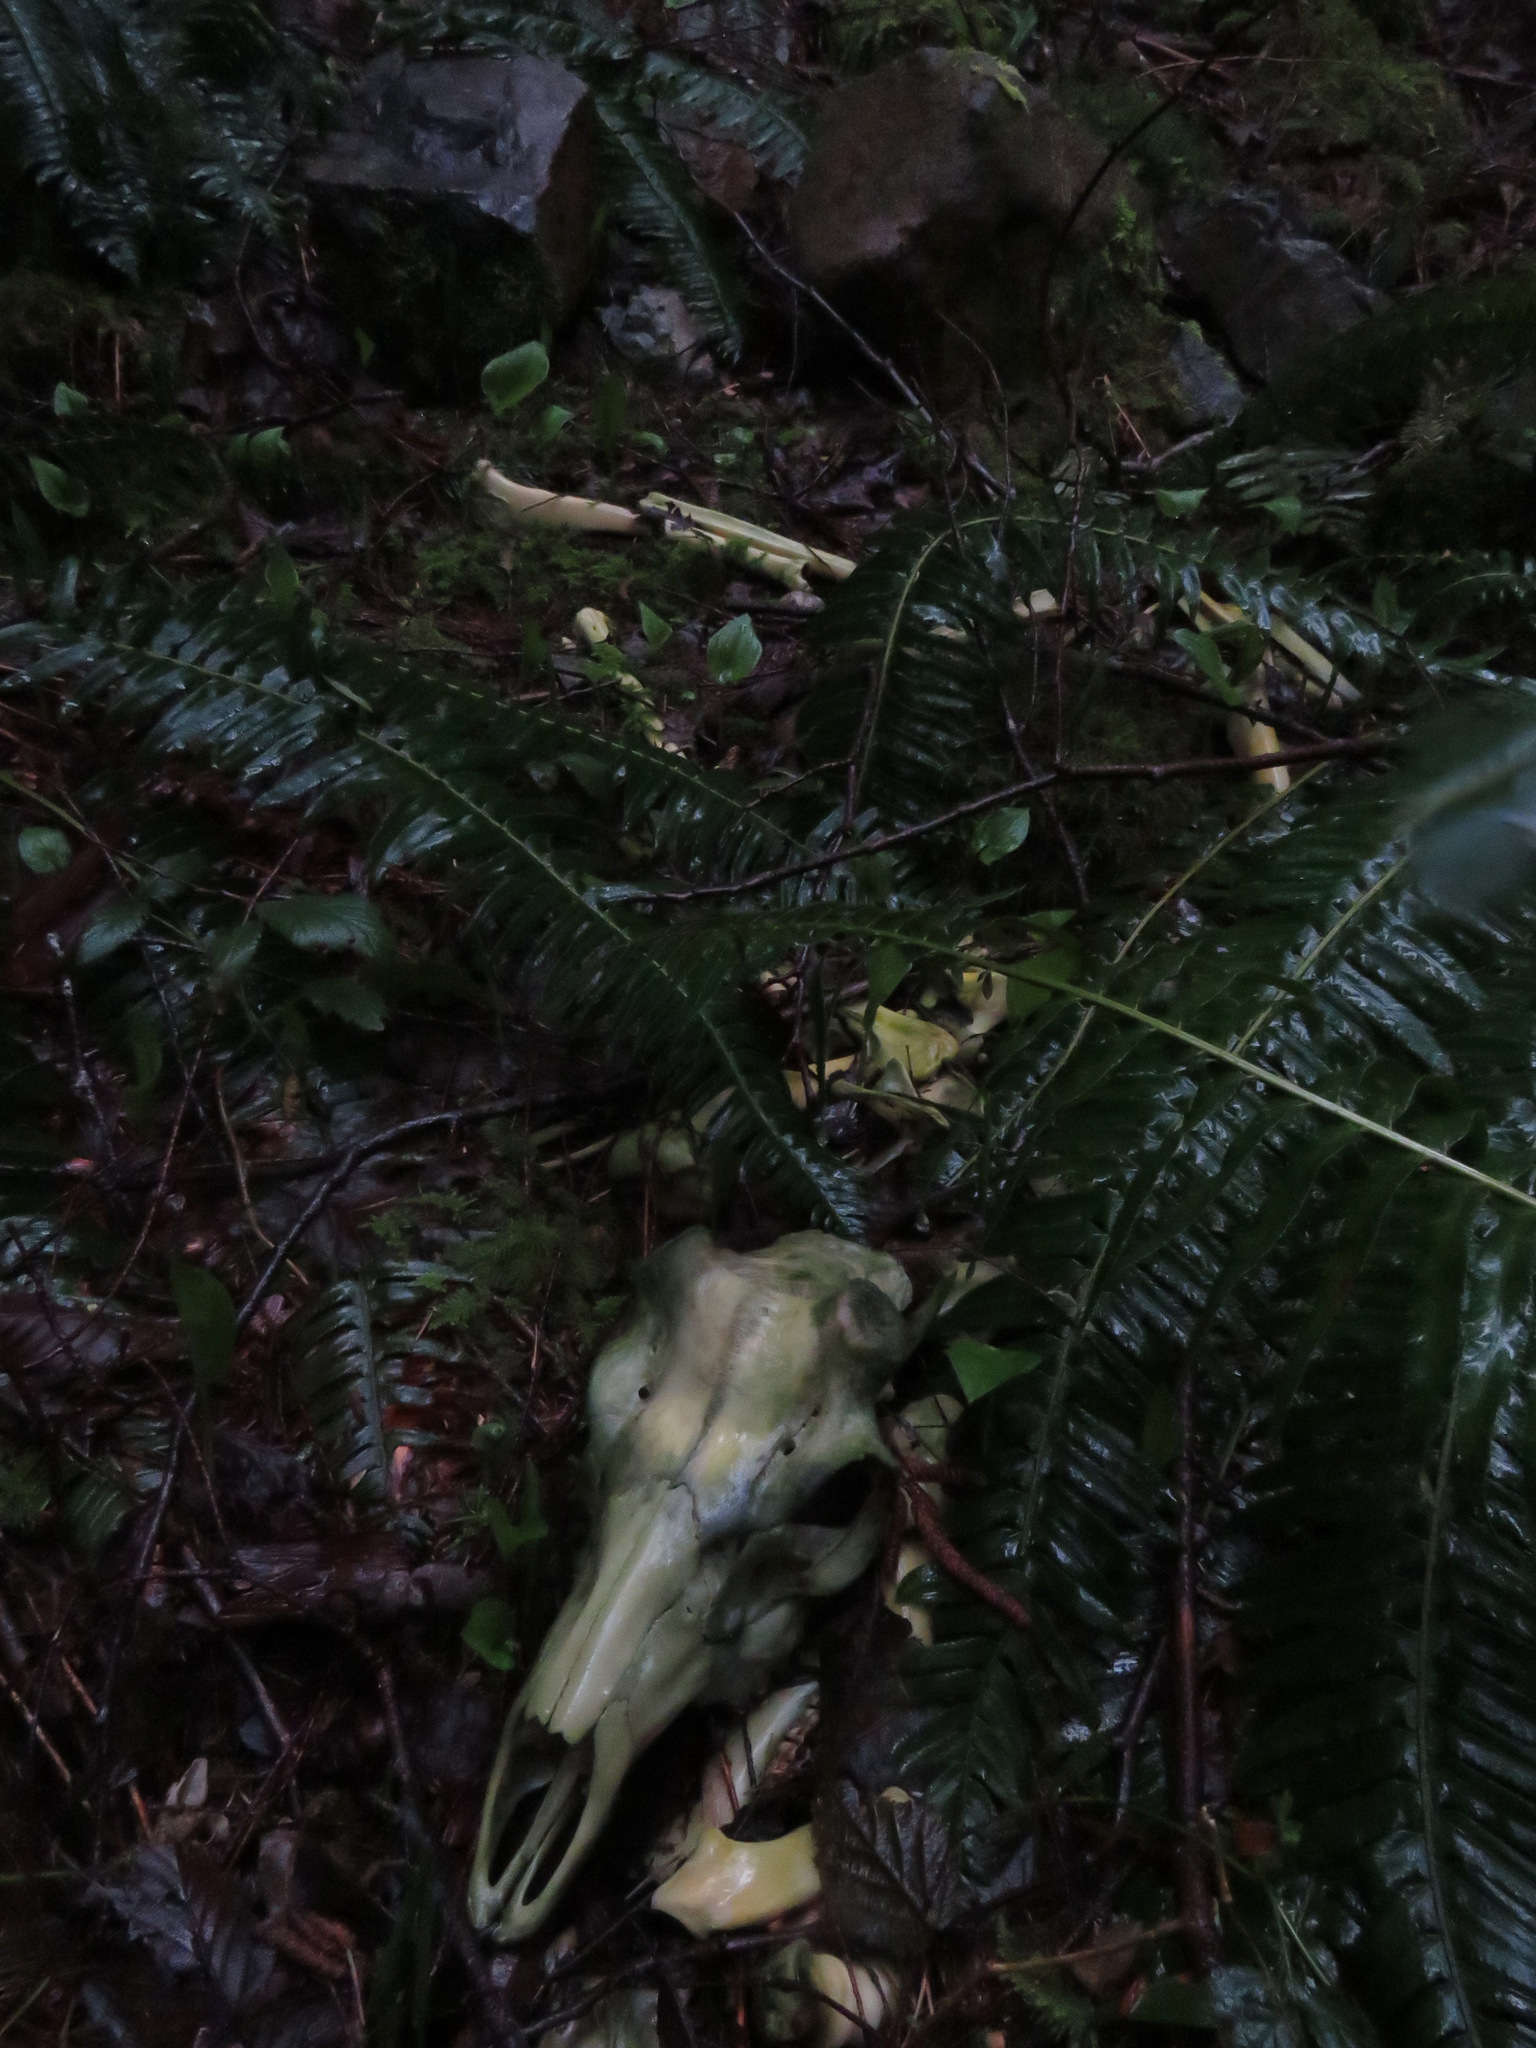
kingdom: Animalia
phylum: Chordata
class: Mammalia
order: Artiodactyla
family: Cervidae
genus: Cervus
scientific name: Cervus elaphus
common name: Red deer
